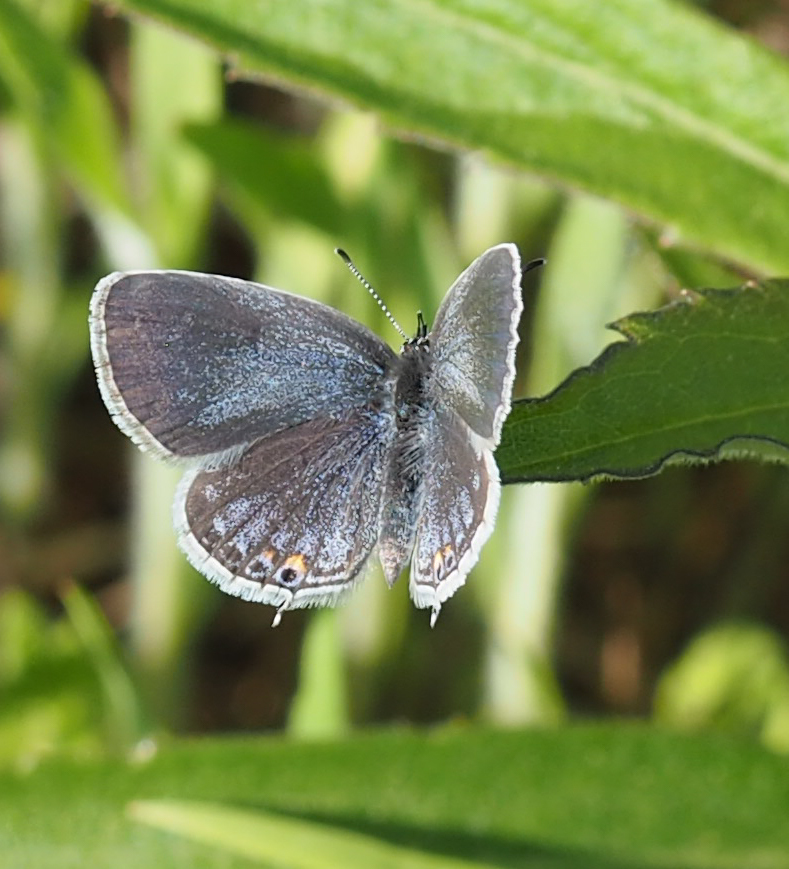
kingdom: Animalia
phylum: Arthropoda
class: Insecta
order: Lepidoptera
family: Lycaenidae
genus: Elkalyce
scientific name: Elkalyce comyntas
